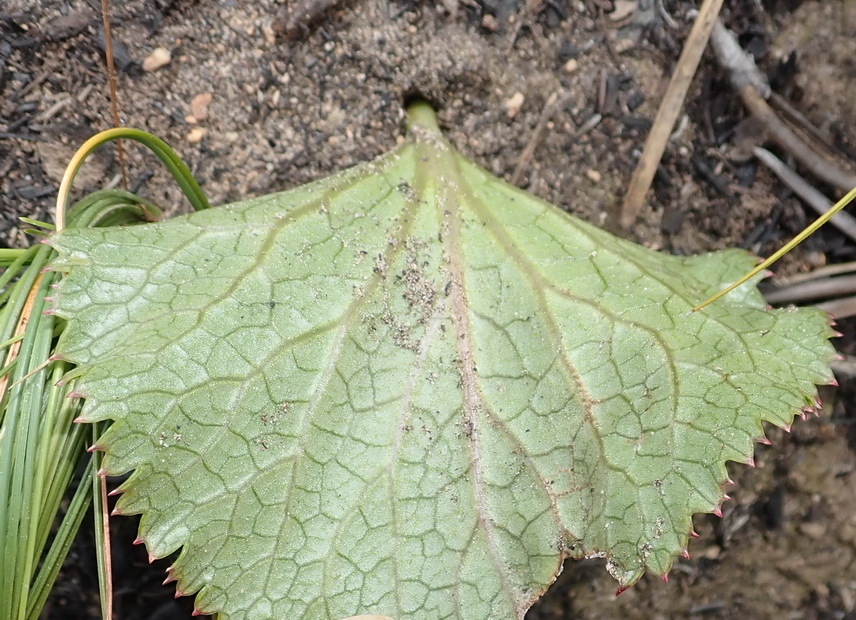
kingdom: Plantae
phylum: Tracheophyta
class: Magnoliopsida
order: Apiales
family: Apiaceae
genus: Lichtensteinia
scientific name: Lichtensteinia latifolia
